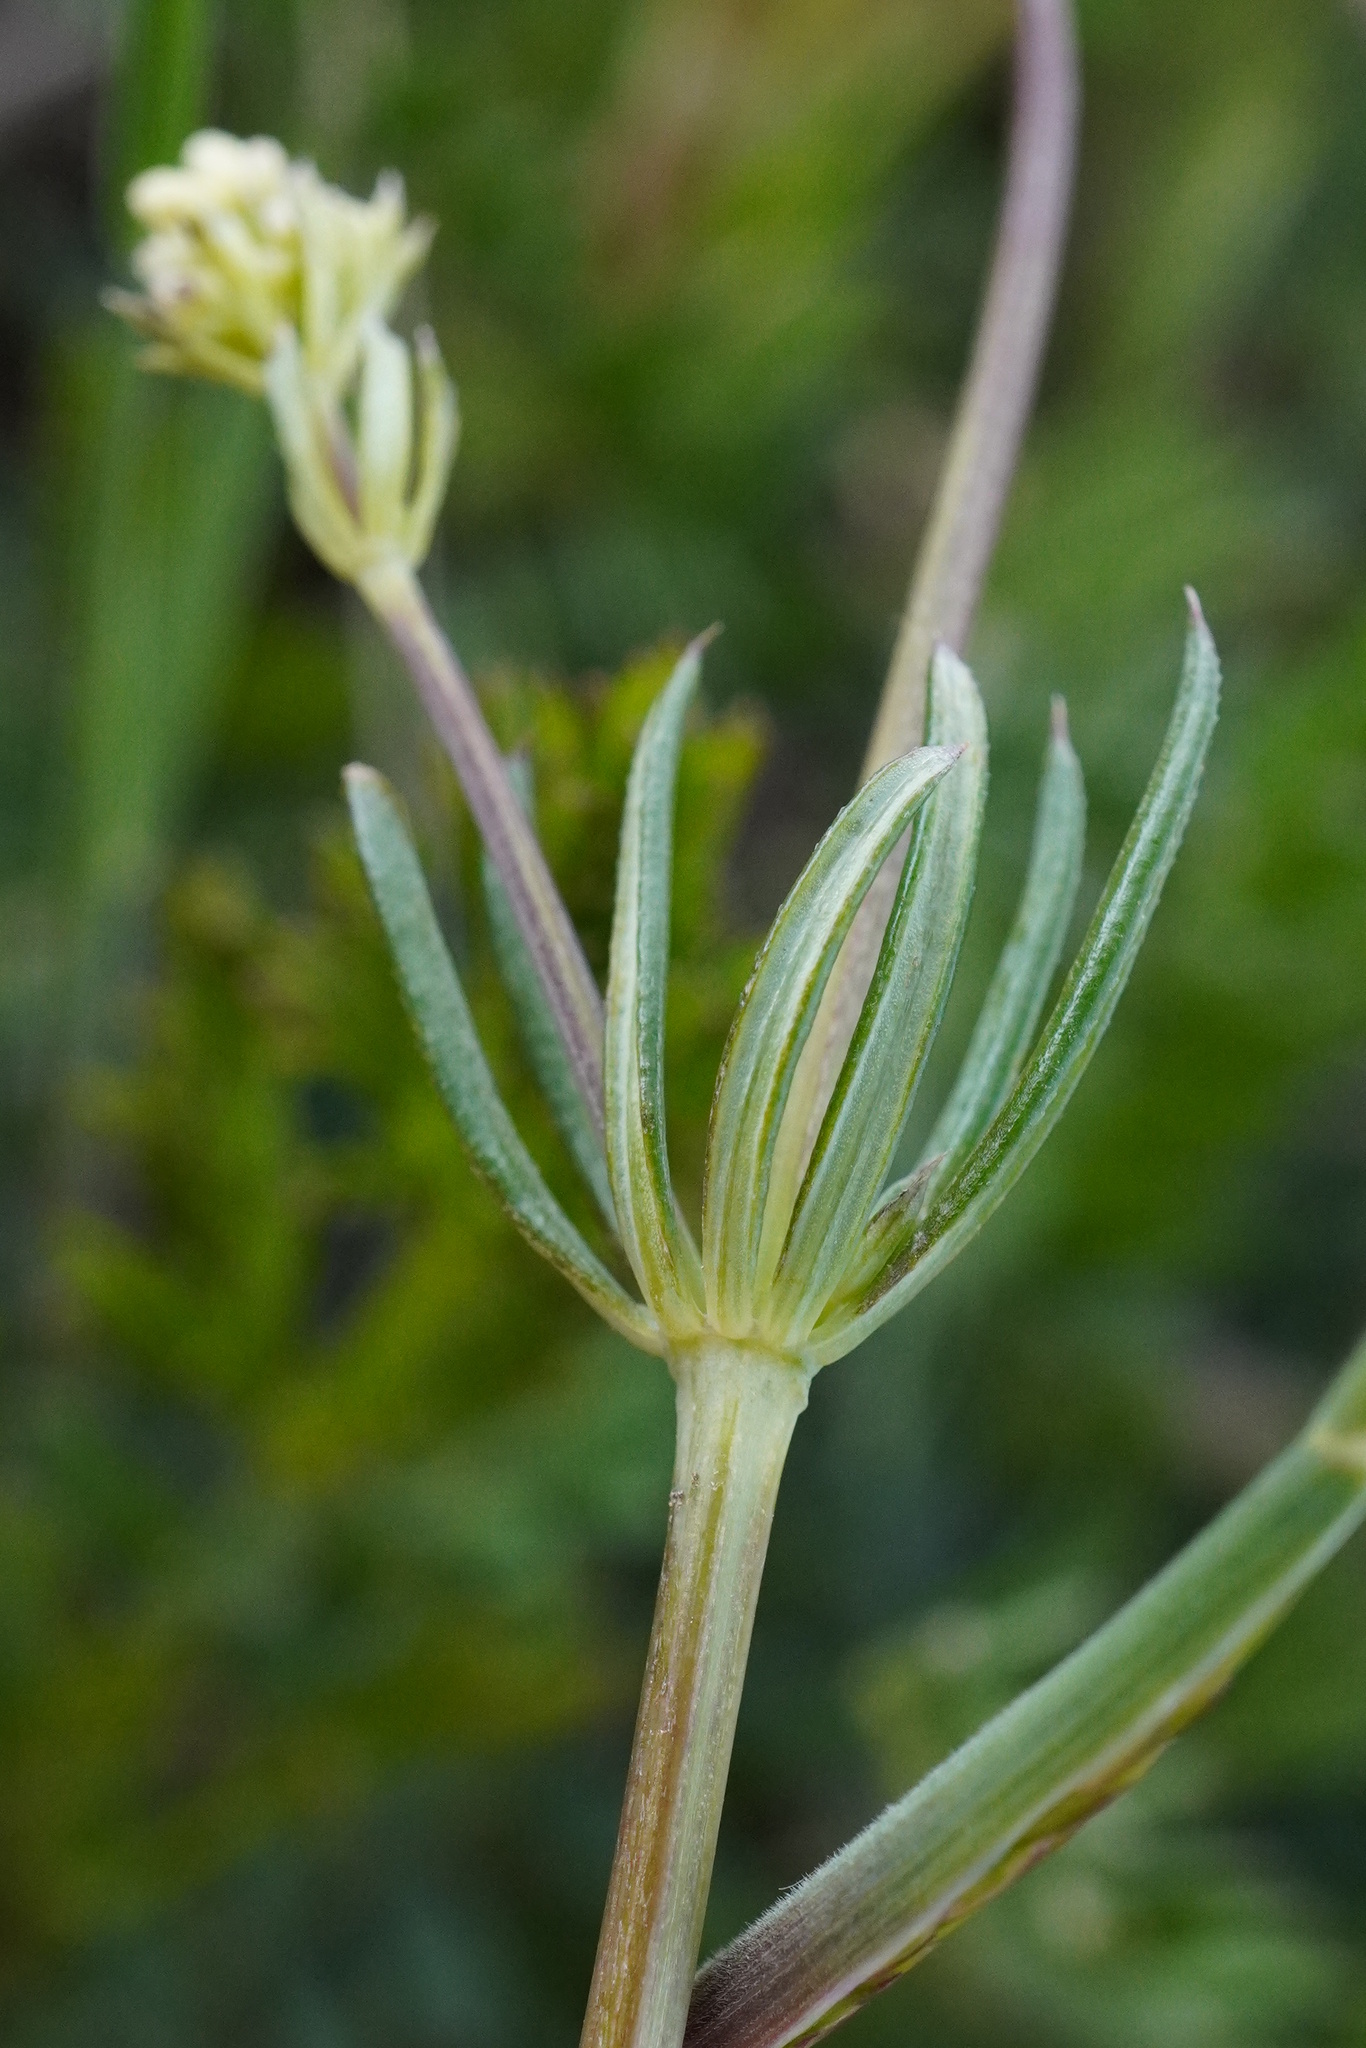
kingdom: Plantae
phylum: Tracheophyta
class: Magnoliopsida
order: Gentianales
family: Rubiaceae
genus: Galium
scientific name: Galium glaucum
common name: Waxy bedstraw
